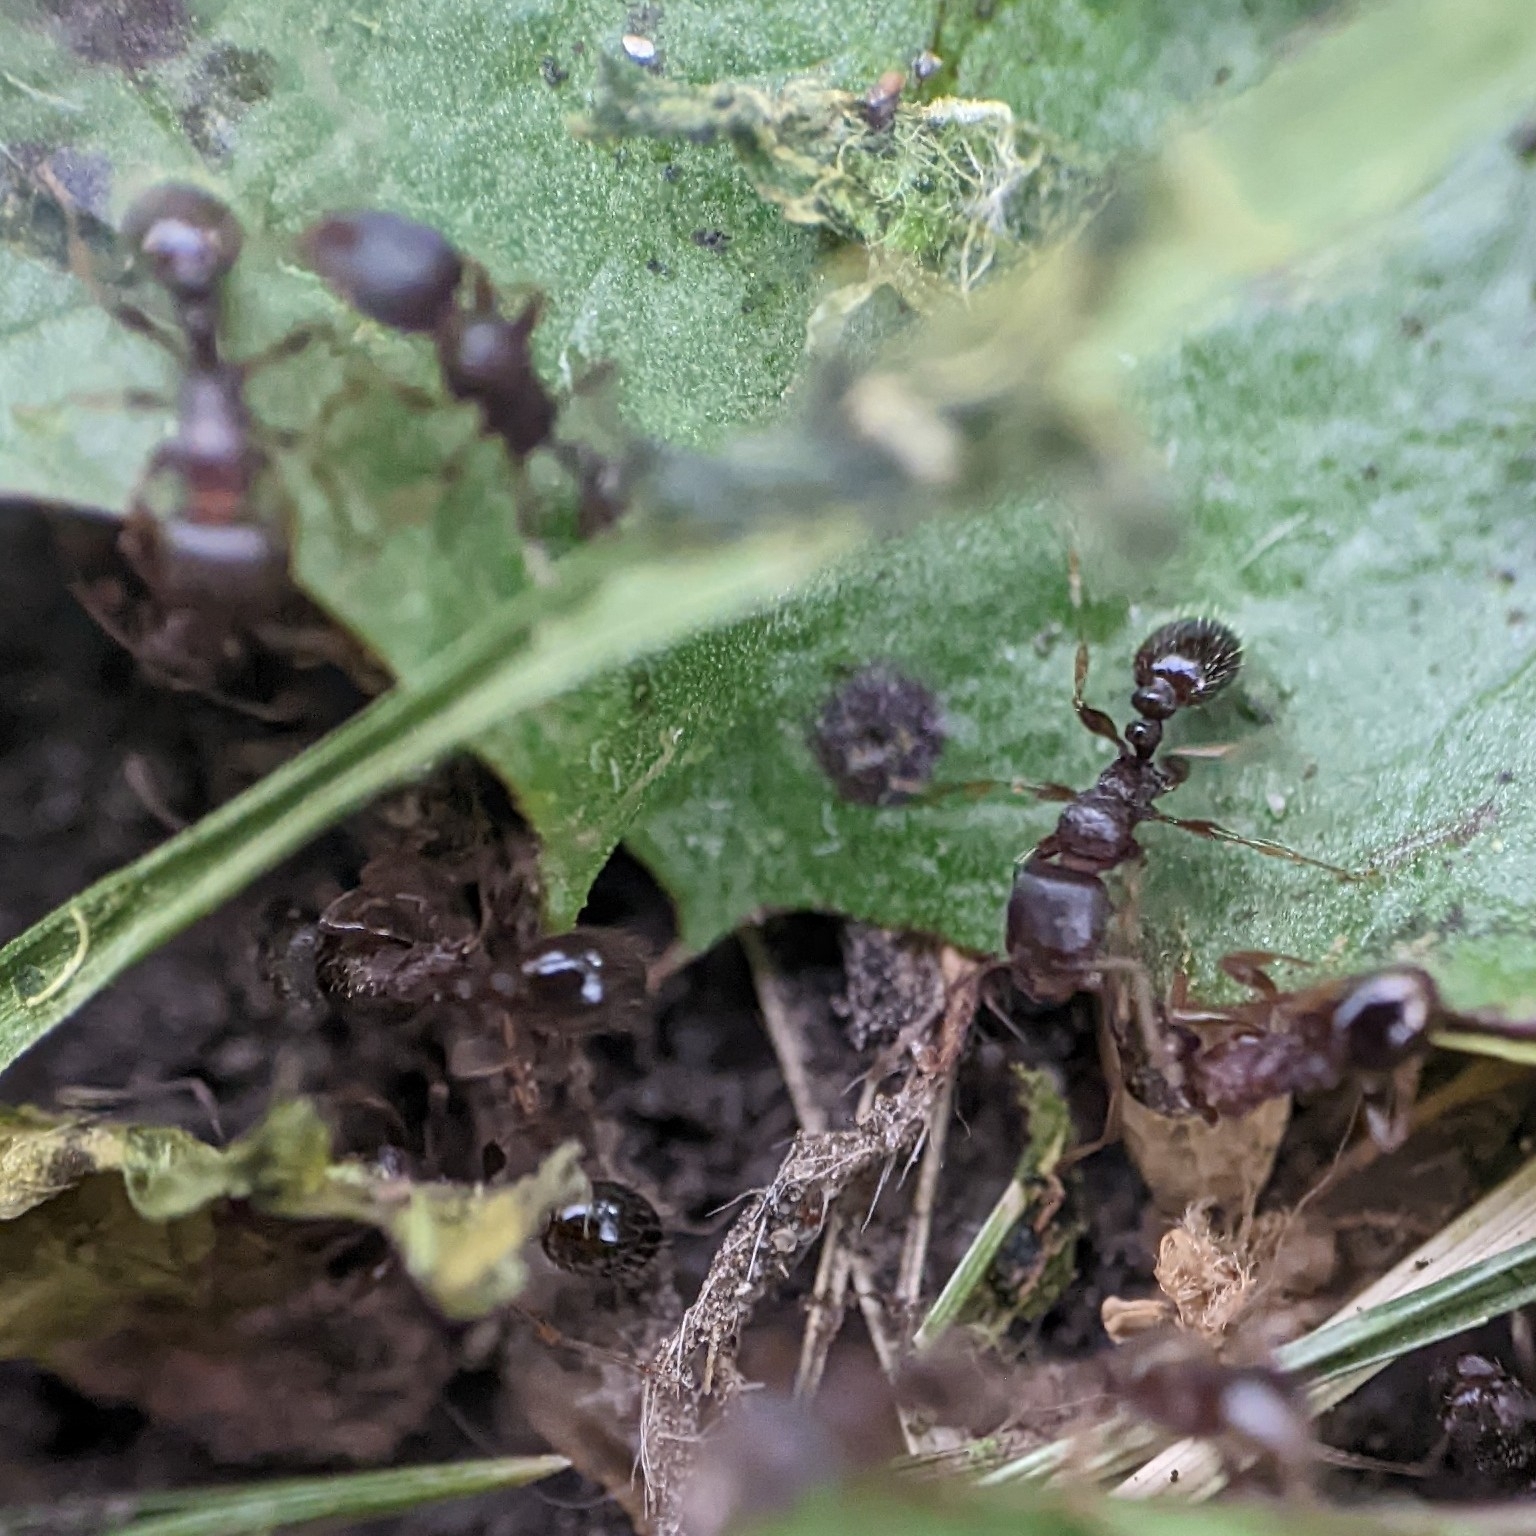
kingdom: Animalia
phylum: Arthropoda
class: Insecta
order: Hymenoptera
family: Formicidae
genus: Tetramorium
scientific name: Tetramorium immigrans
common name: Pavement ant
